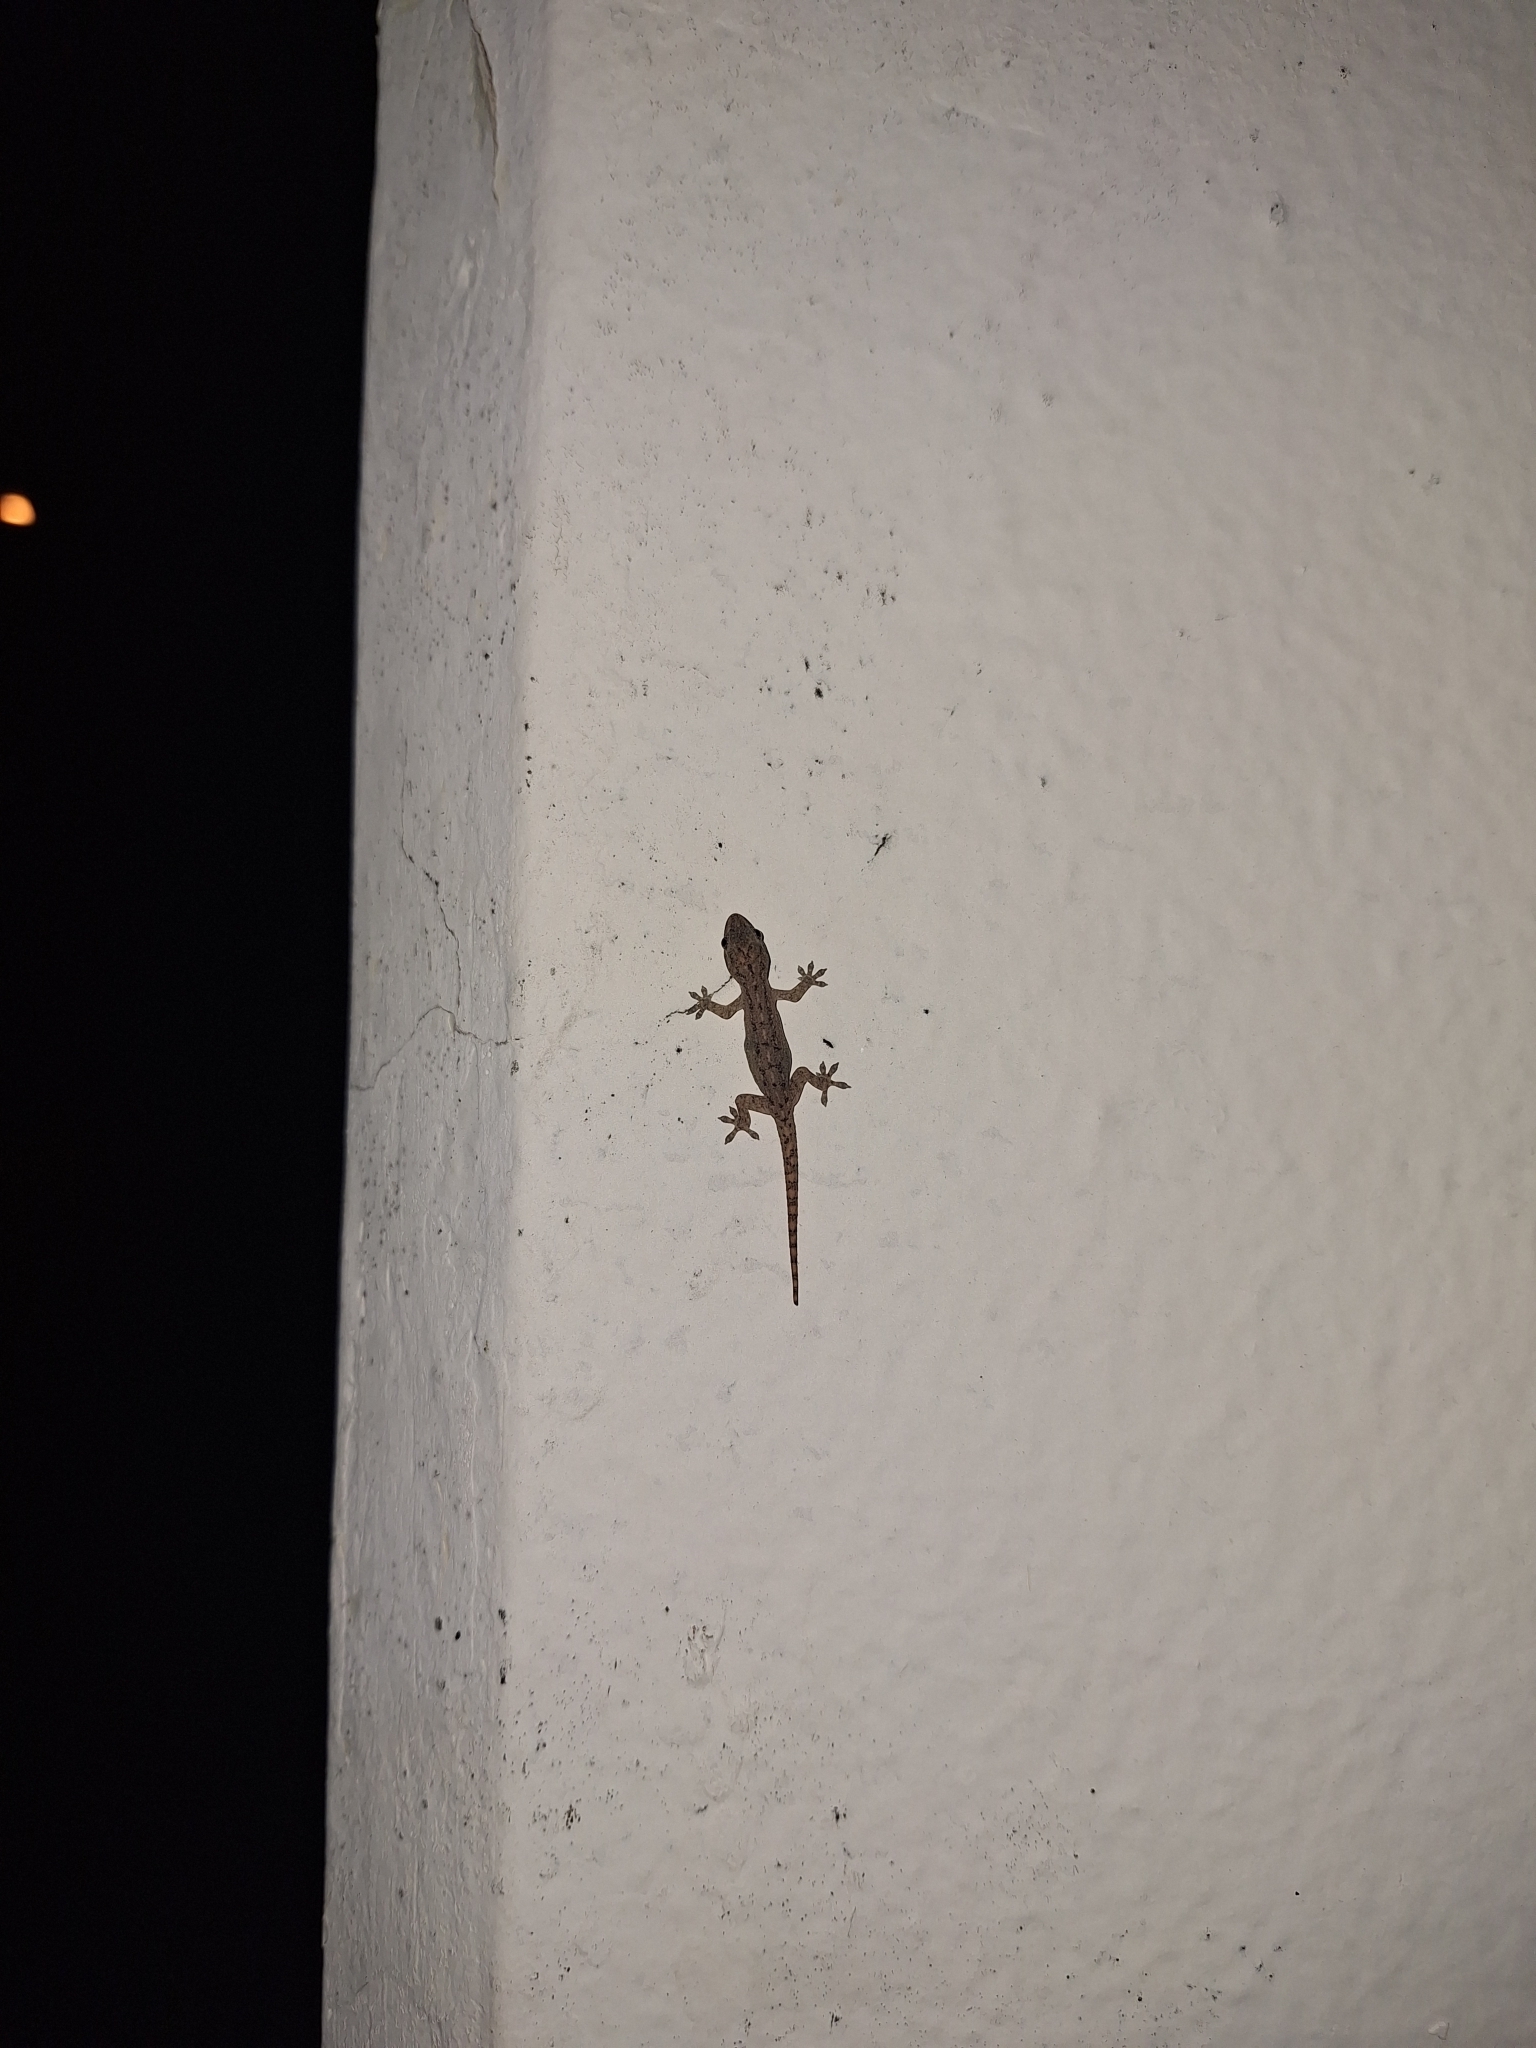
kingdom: Animalia
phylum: Chordata
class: Squamata
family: Gekkonidae
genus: Hemidactylus
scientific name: Hemidactylus frenatus
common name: Common house gecko
